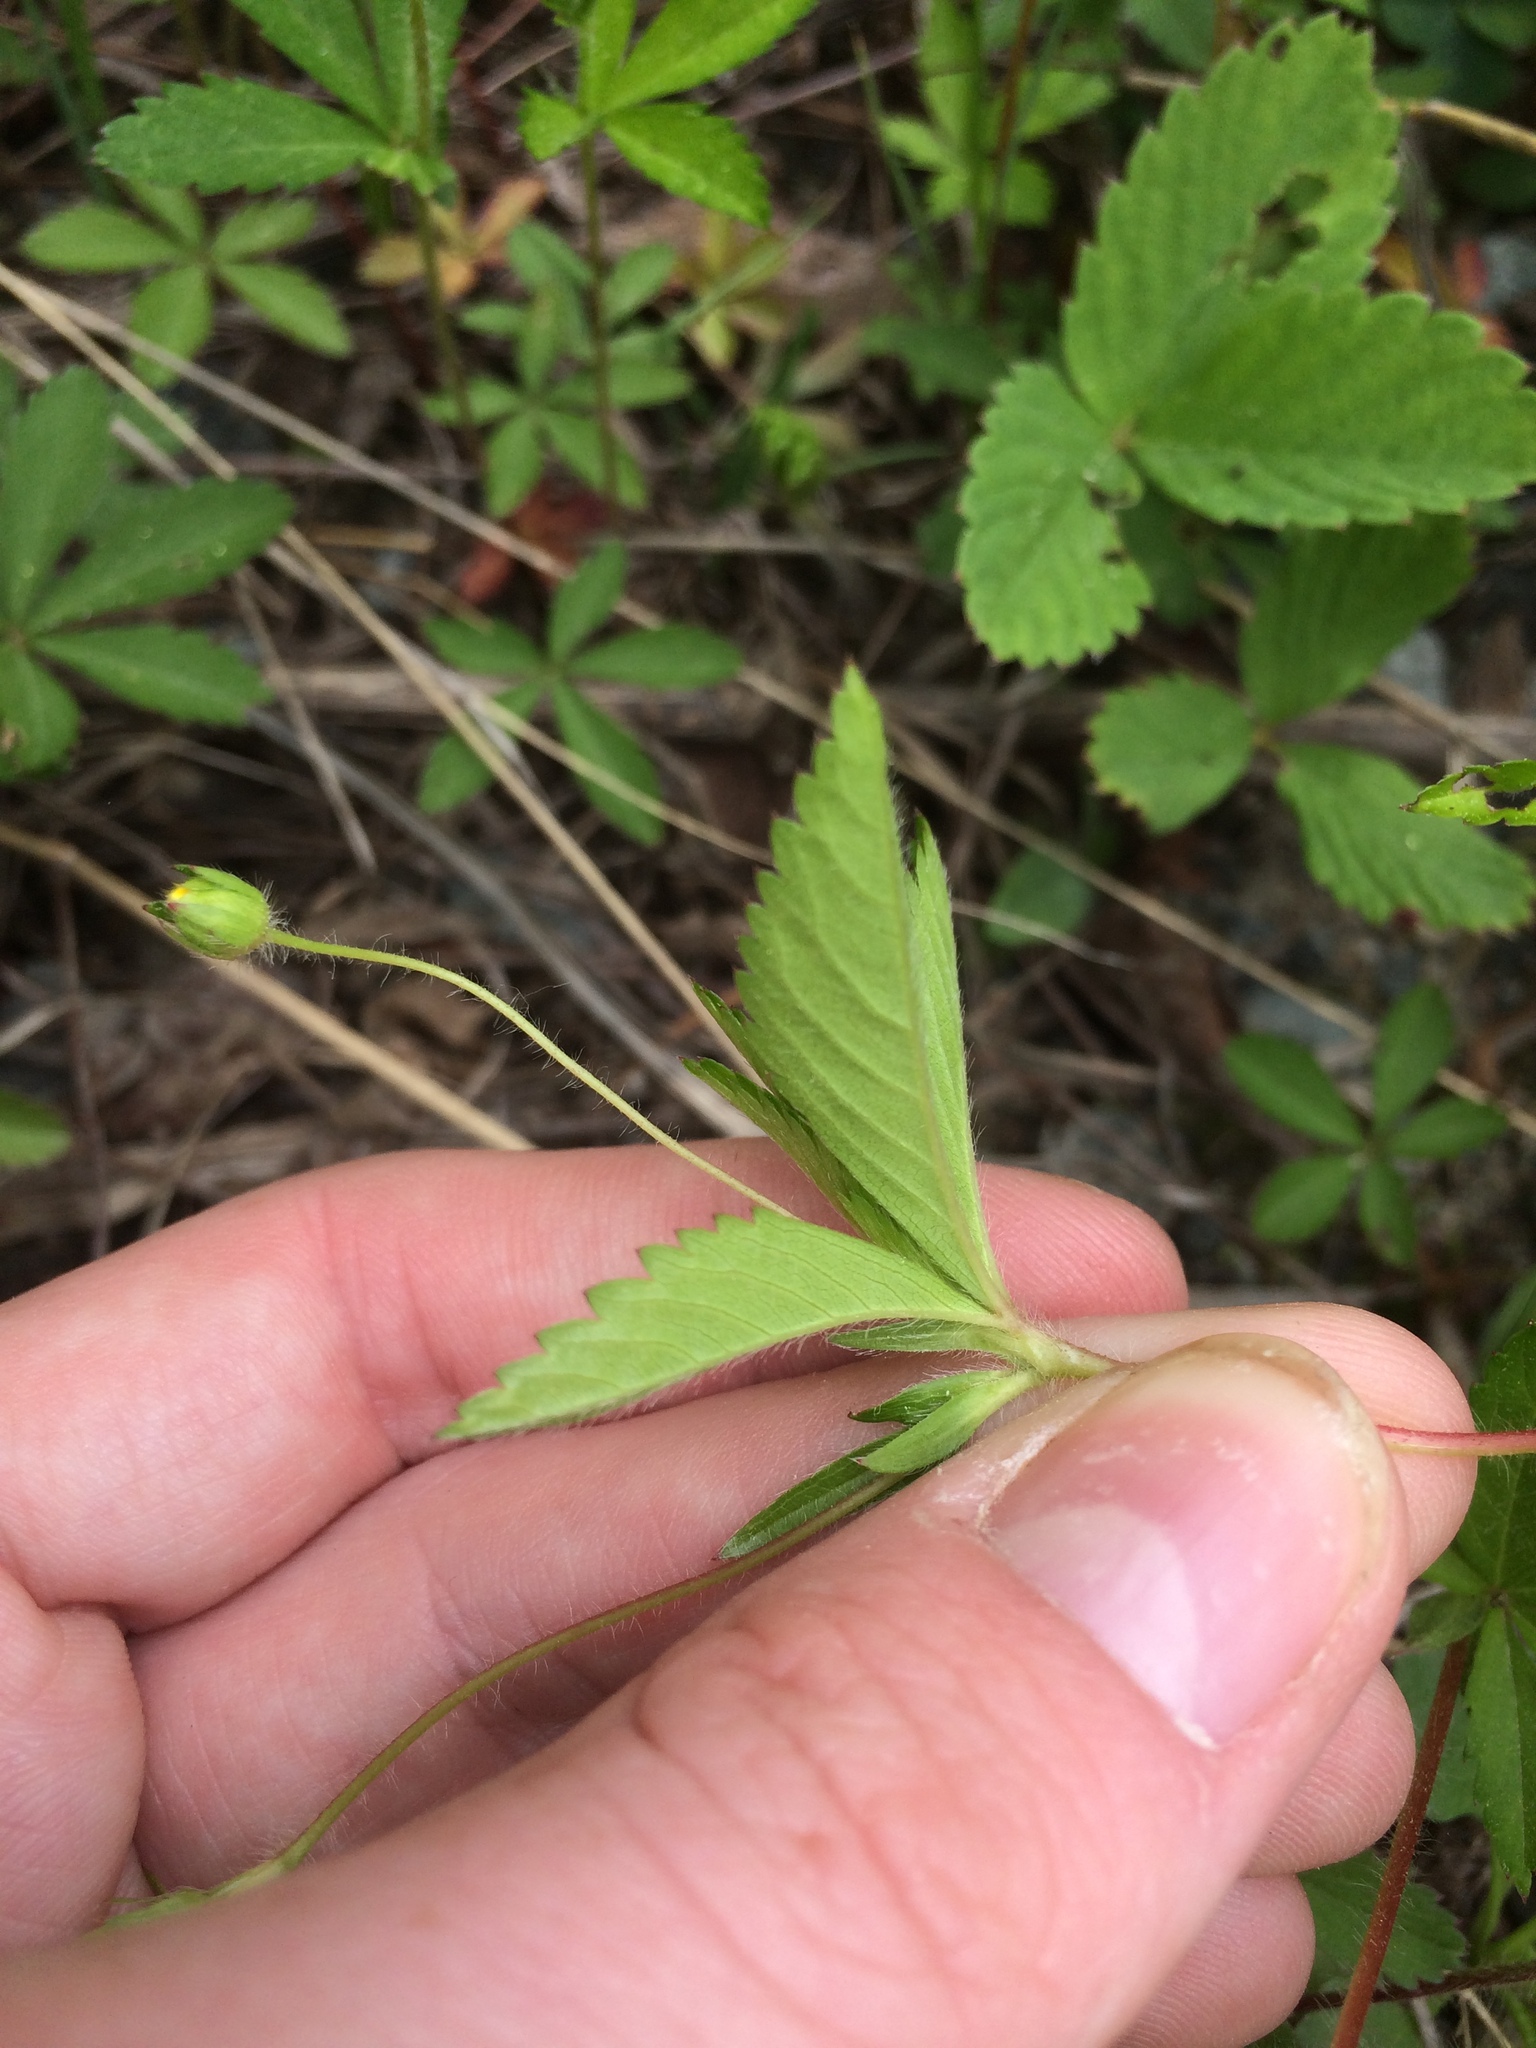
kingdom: Plantae
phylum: Tracheophyta
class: Magnoliopsida
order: Rosales
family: Rosaceae
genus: Potentilla
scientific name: Potentilla simplex
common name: Old field cinquefoil
